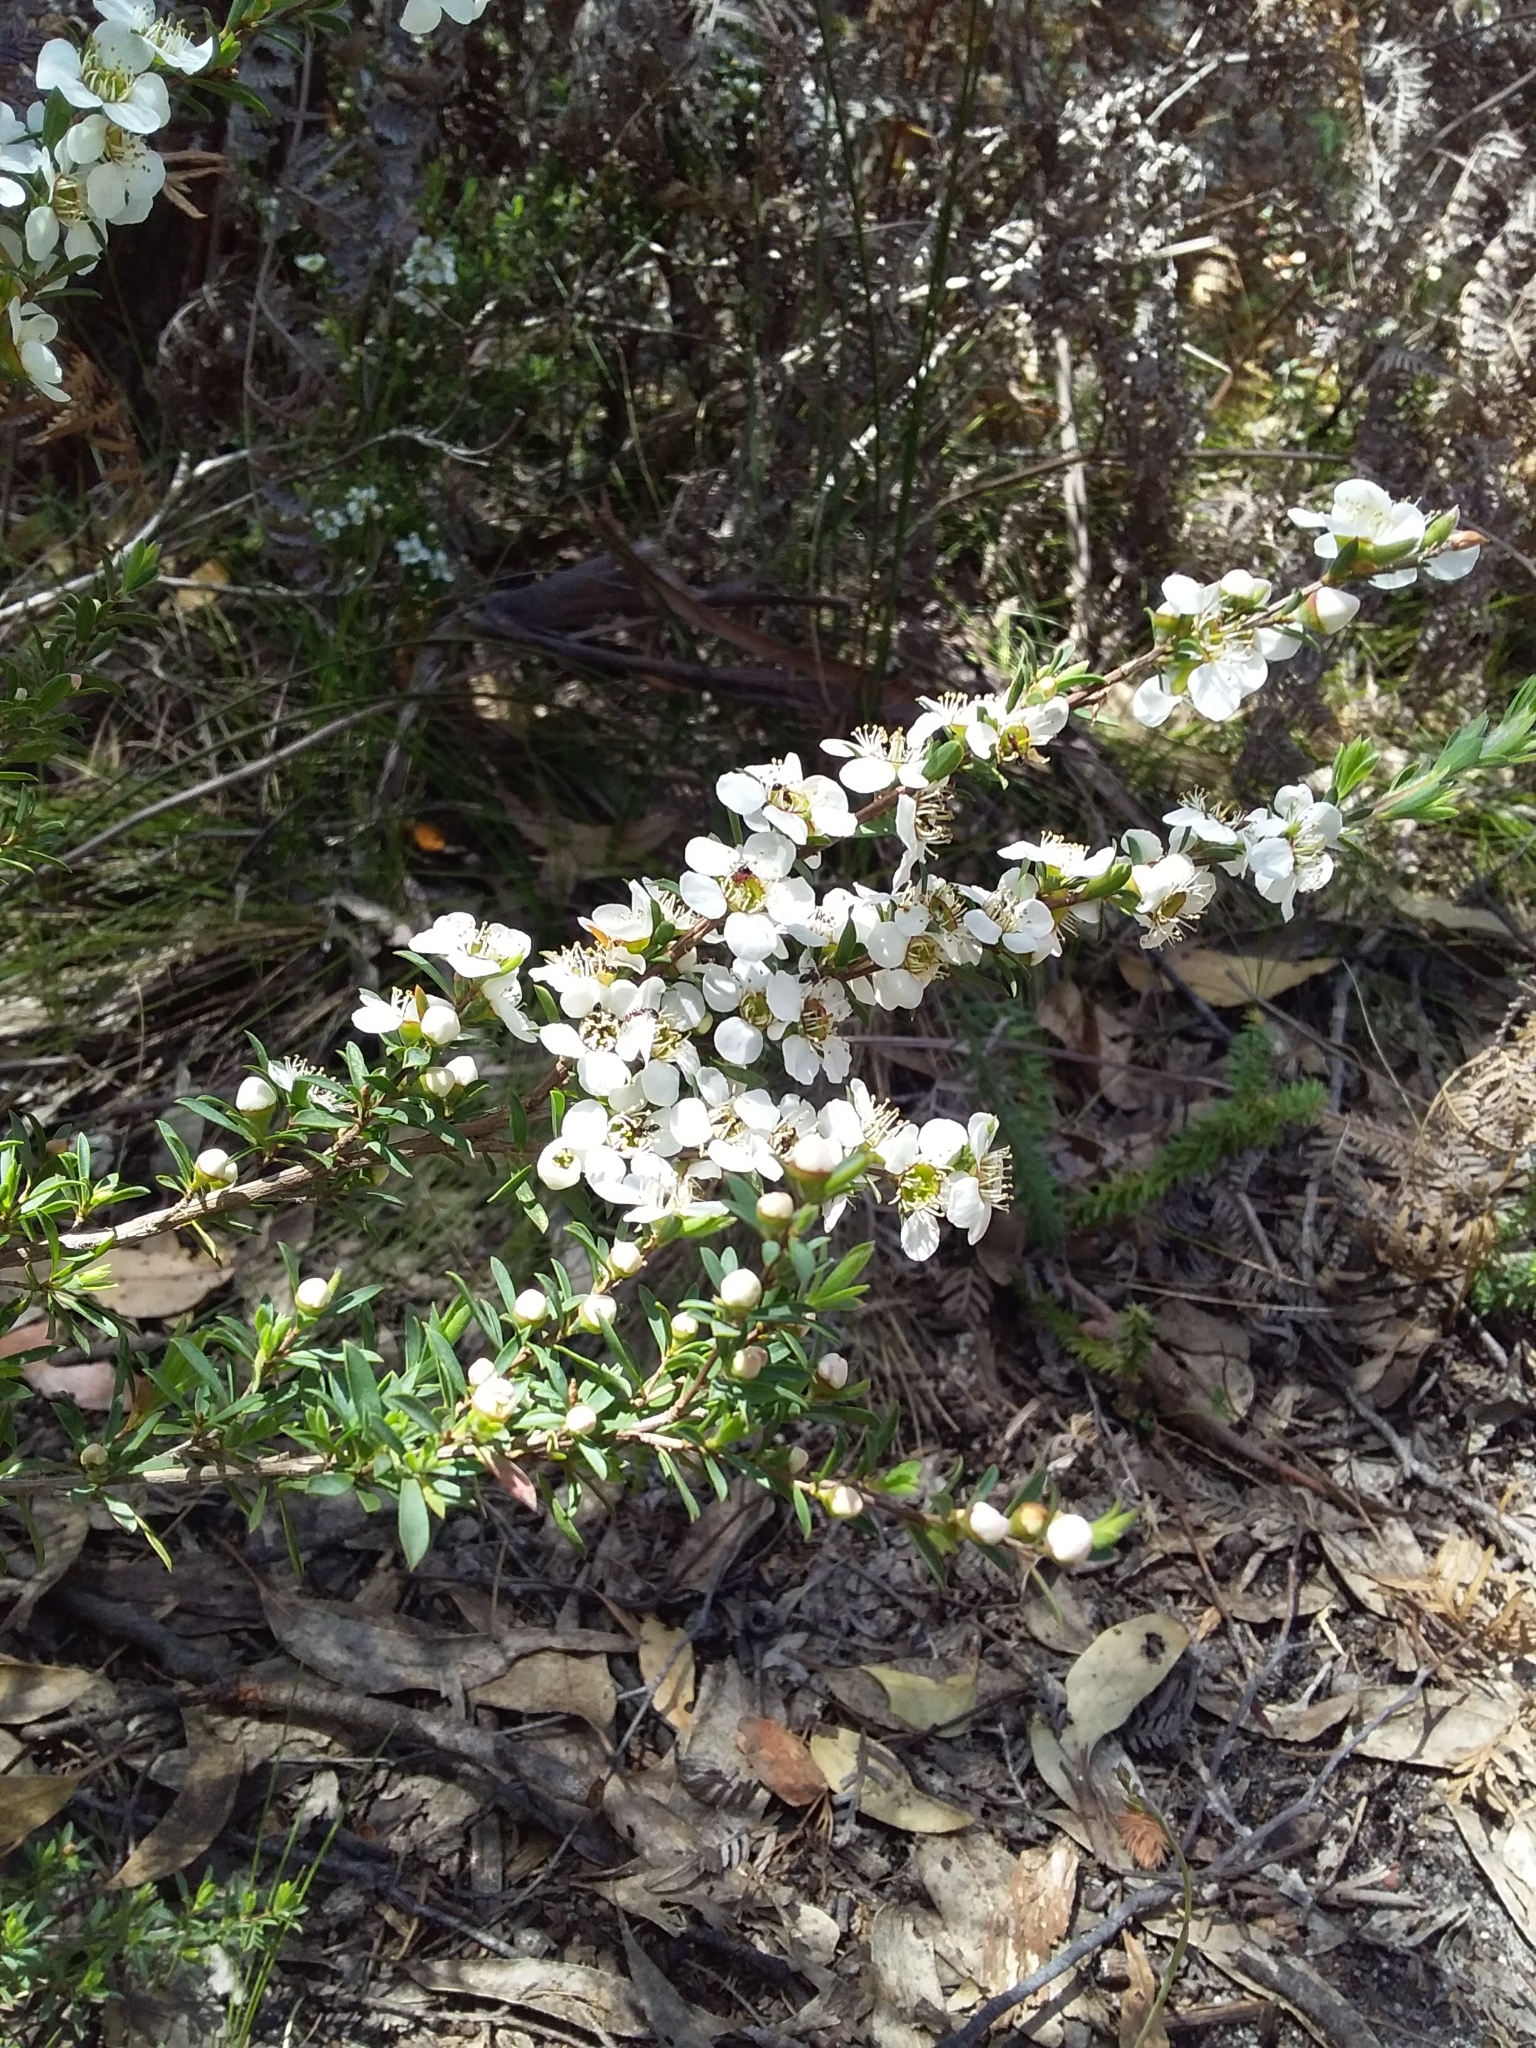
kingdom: Plantae
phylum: Tracheophyta
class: Magnoliopsida
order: Myrtales
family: Myrtaceae
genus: Leptospermum
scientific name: Leptospermum myrsinoides
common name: Heath teatree
